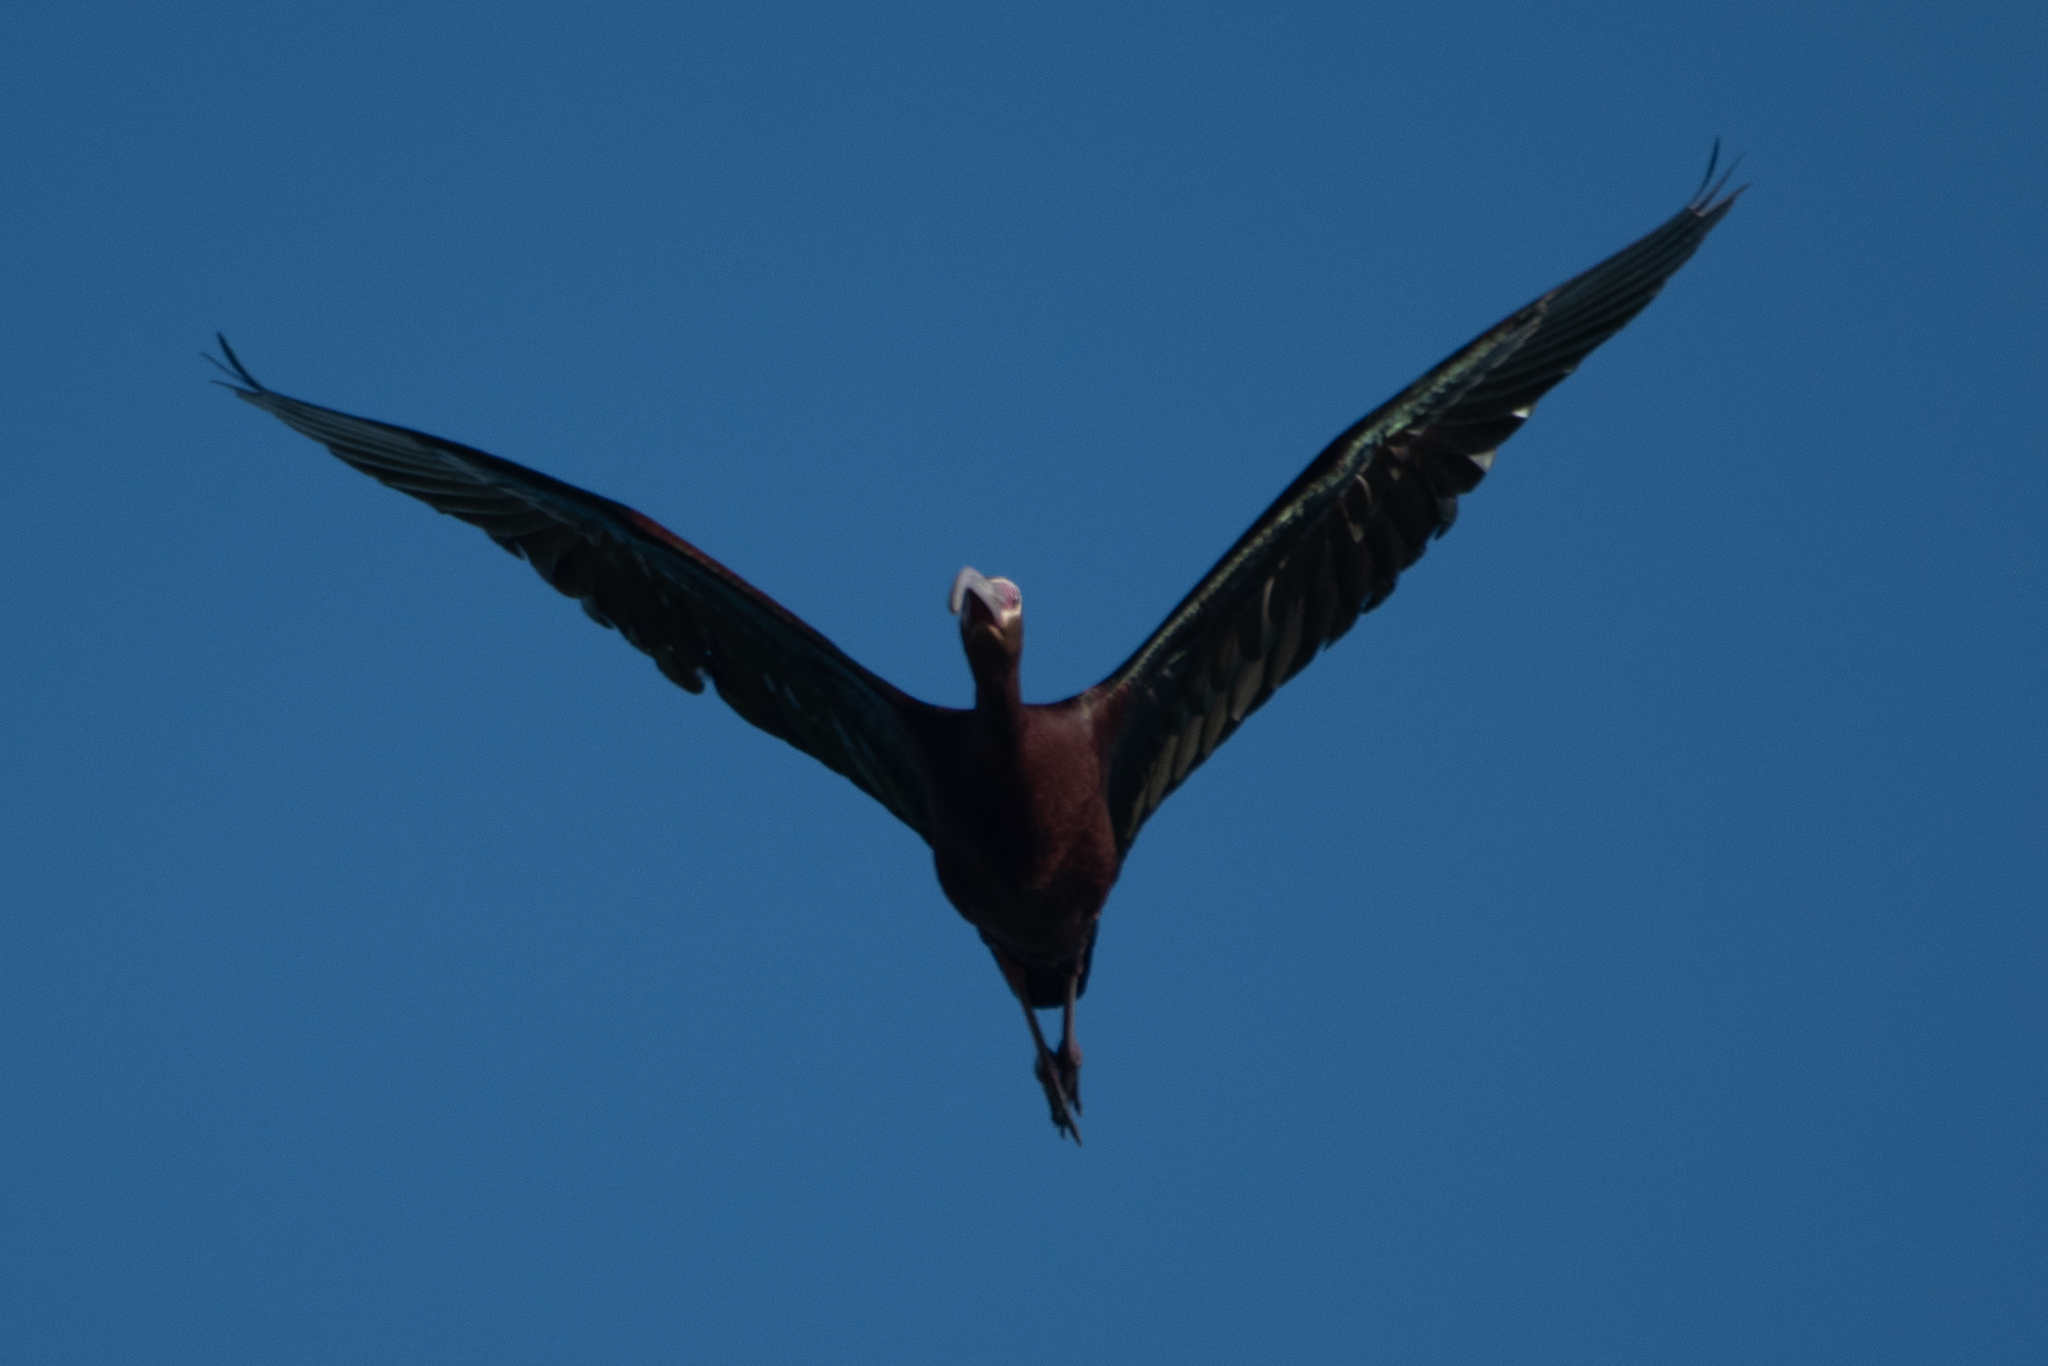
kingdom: Animalia
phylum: Chordata
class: Aves
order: Pelecaniformes
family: Threskiornithidae
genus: Plegadis
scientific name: Plegadis chihi
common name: White-faced ibis
